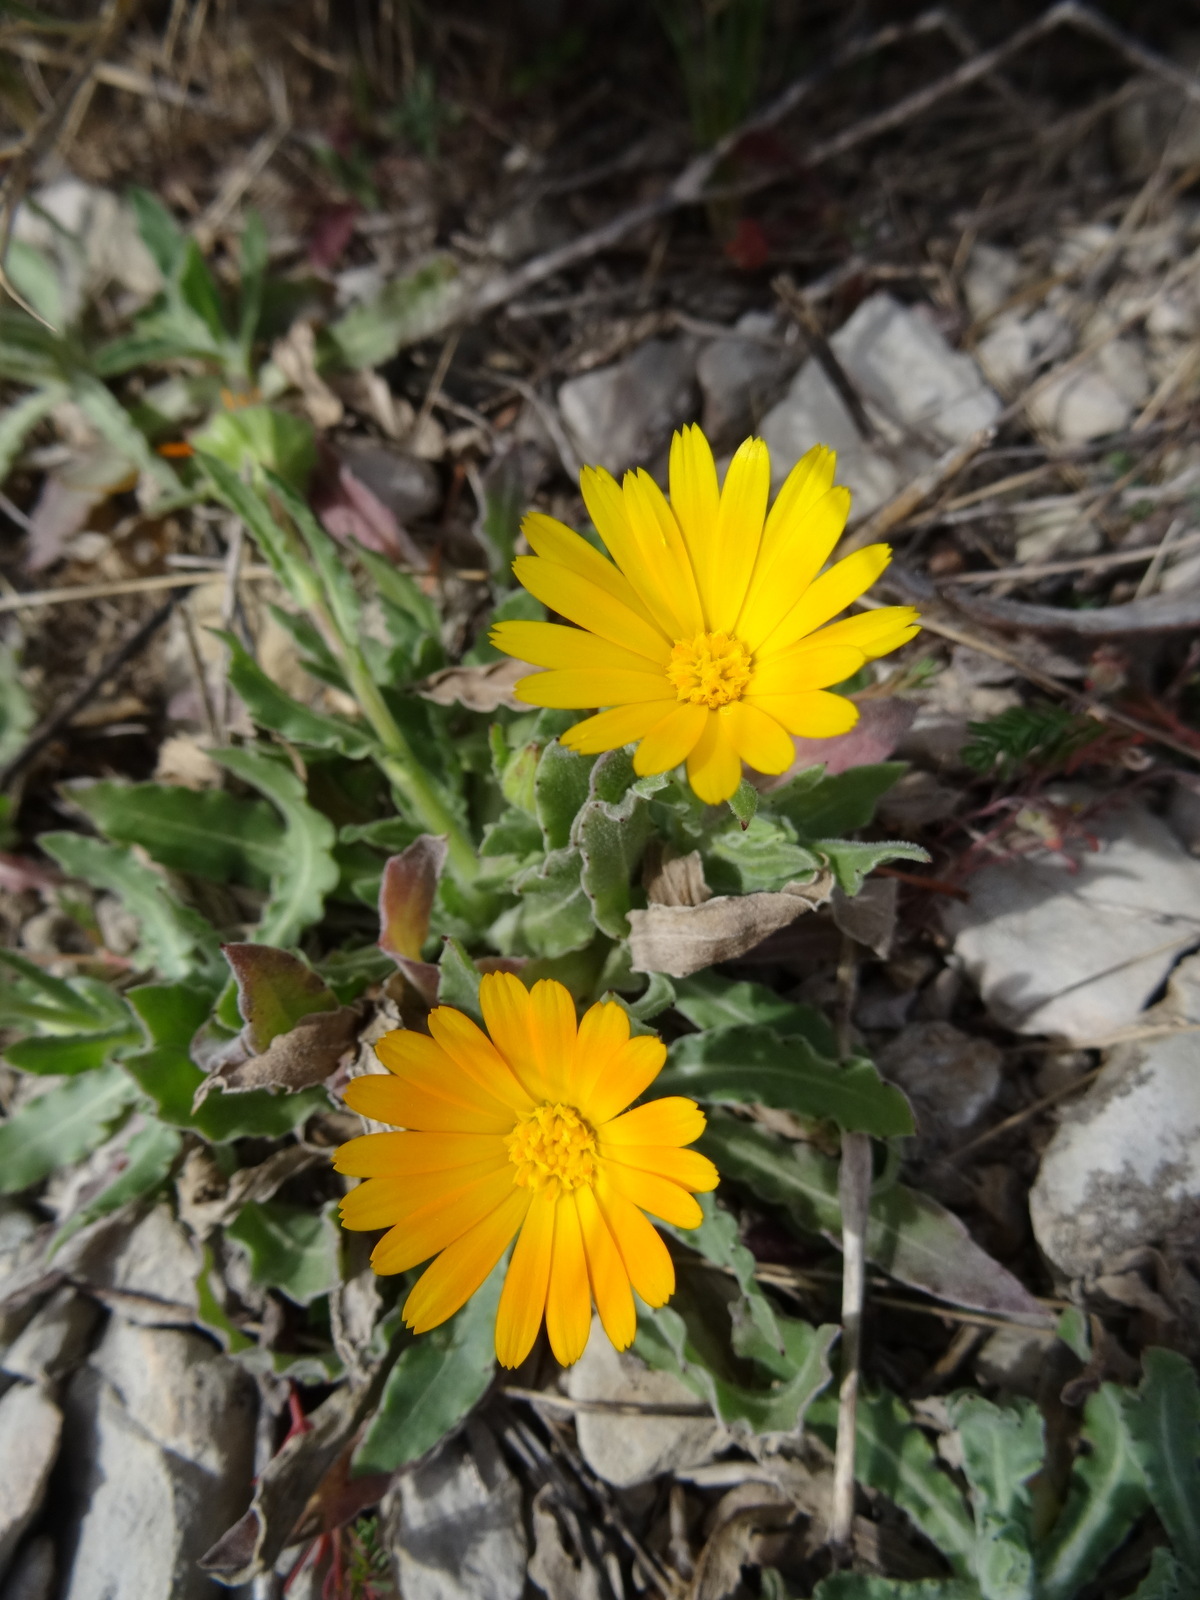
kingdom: Plantae
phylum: Tracheophyta
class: Magnoliopsida
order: Asterales
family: Asteraceae
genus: Calendula
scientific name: Calendula arvensis
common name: Field marigold
